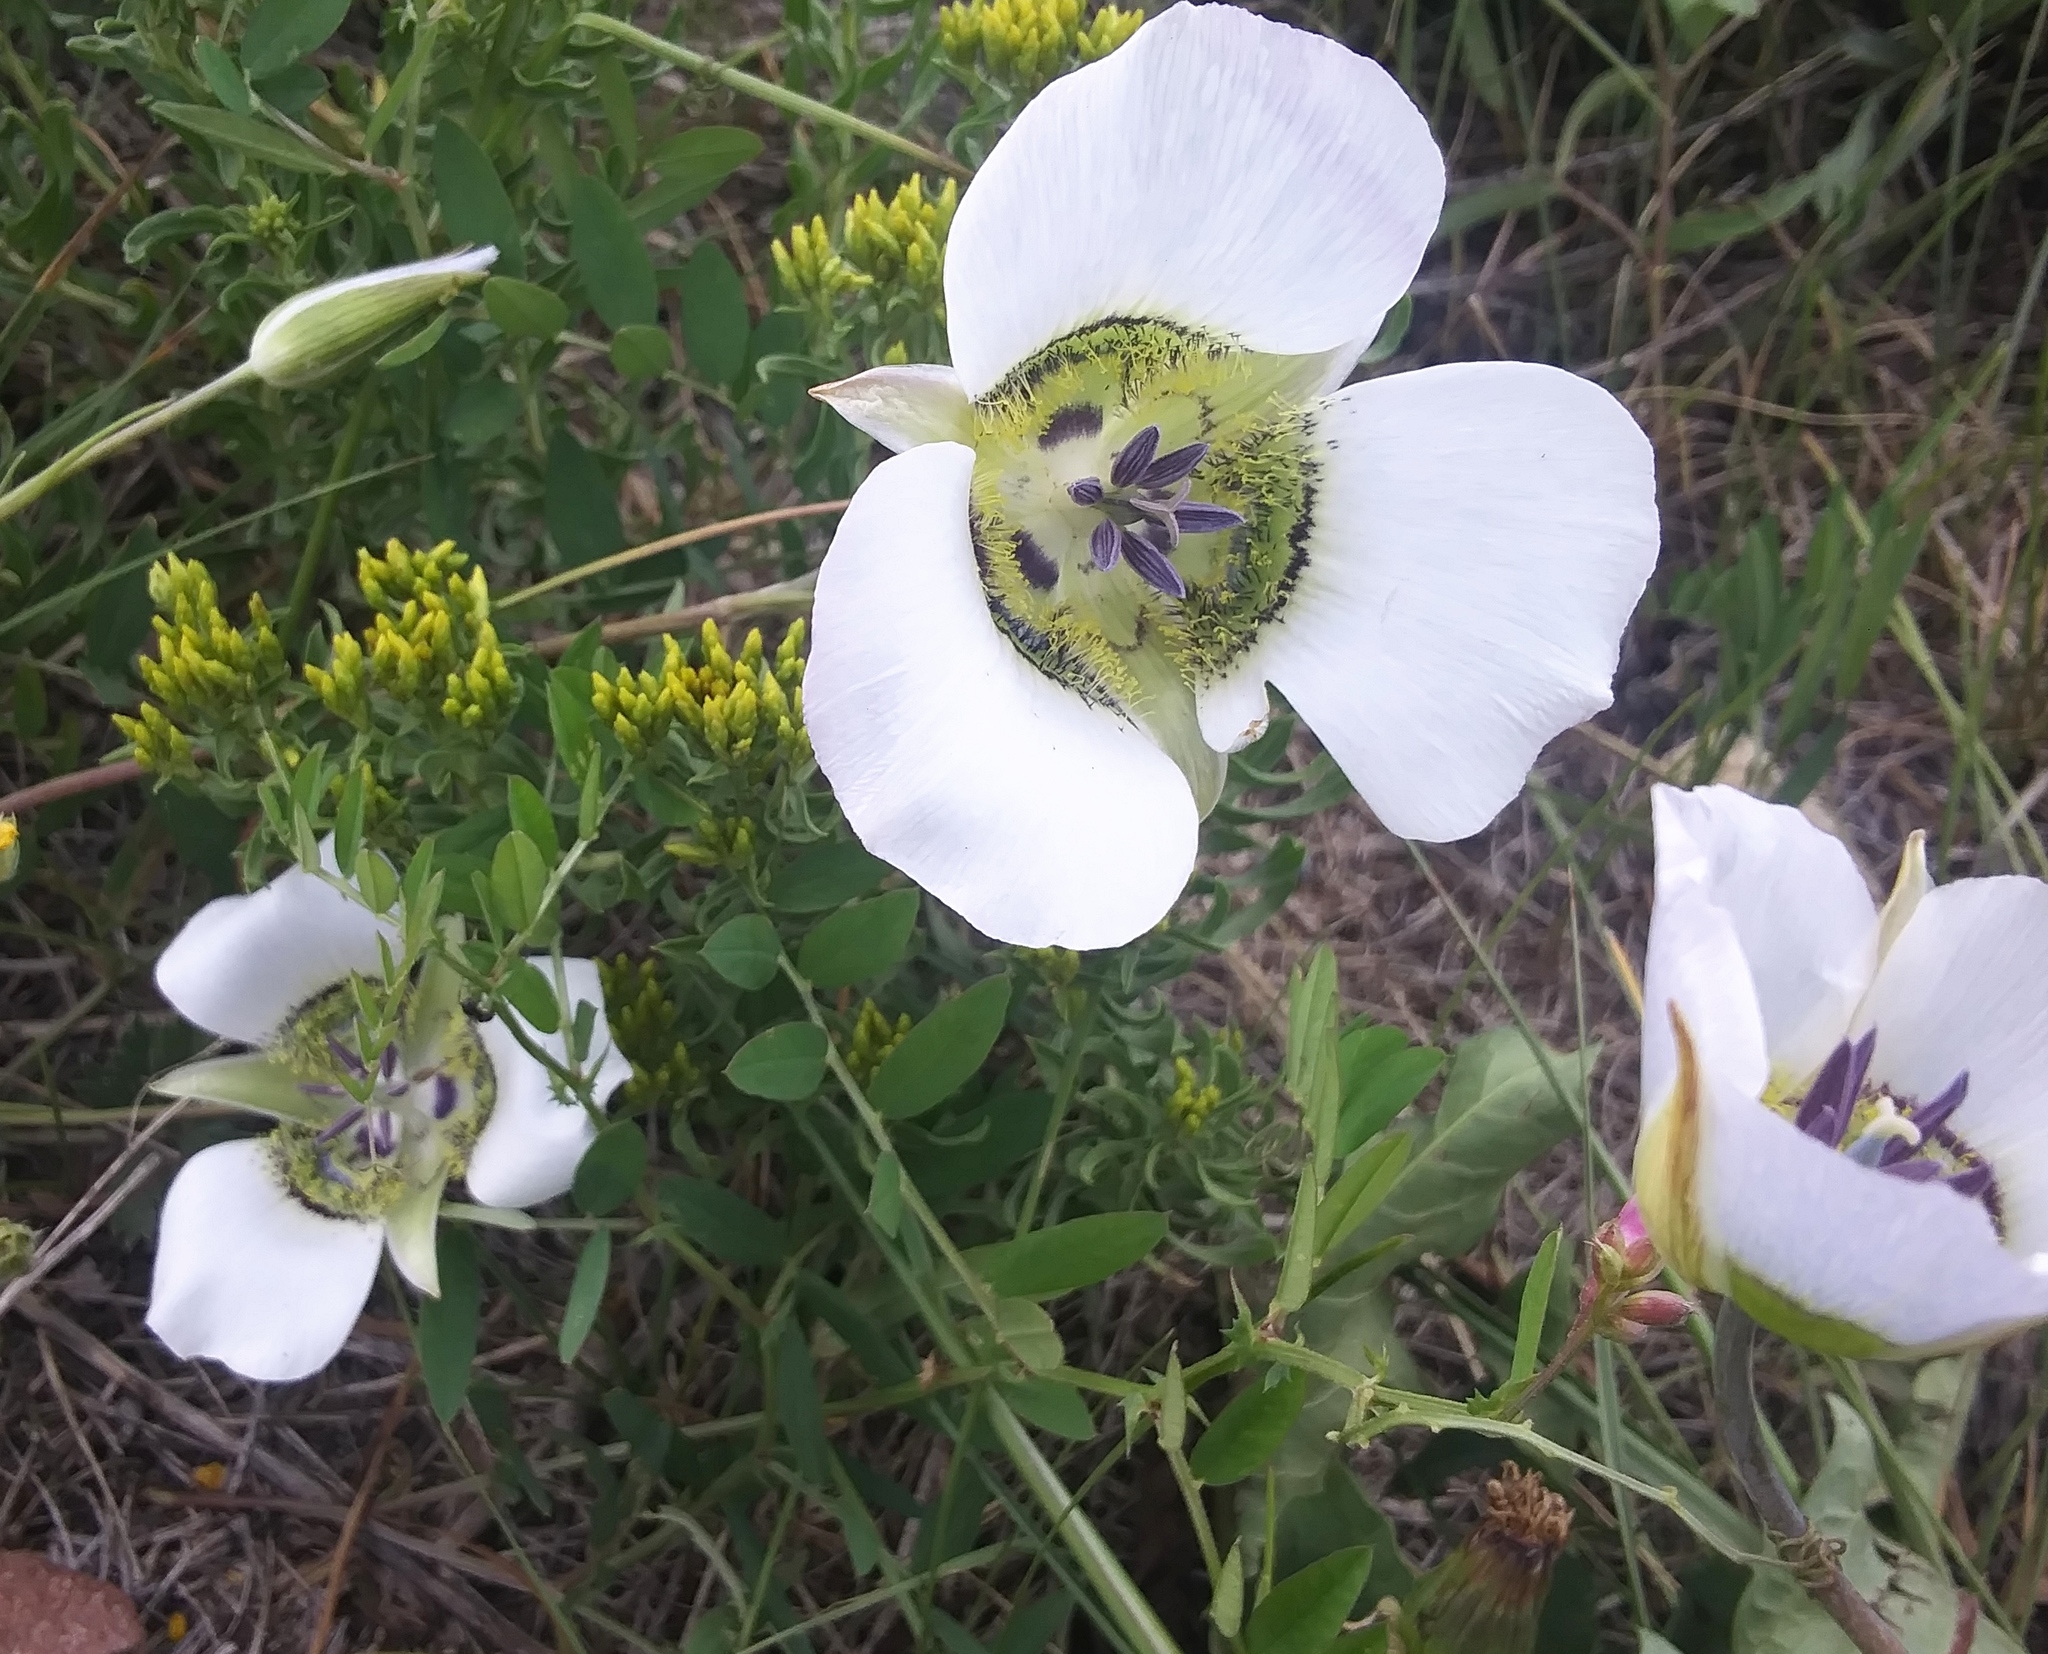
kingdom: Plantae
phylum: Tracheophyta
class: Liliopsida
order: Liliales
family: Liliaceae
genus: Calochortus
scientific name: Calochortus gunnisonii
